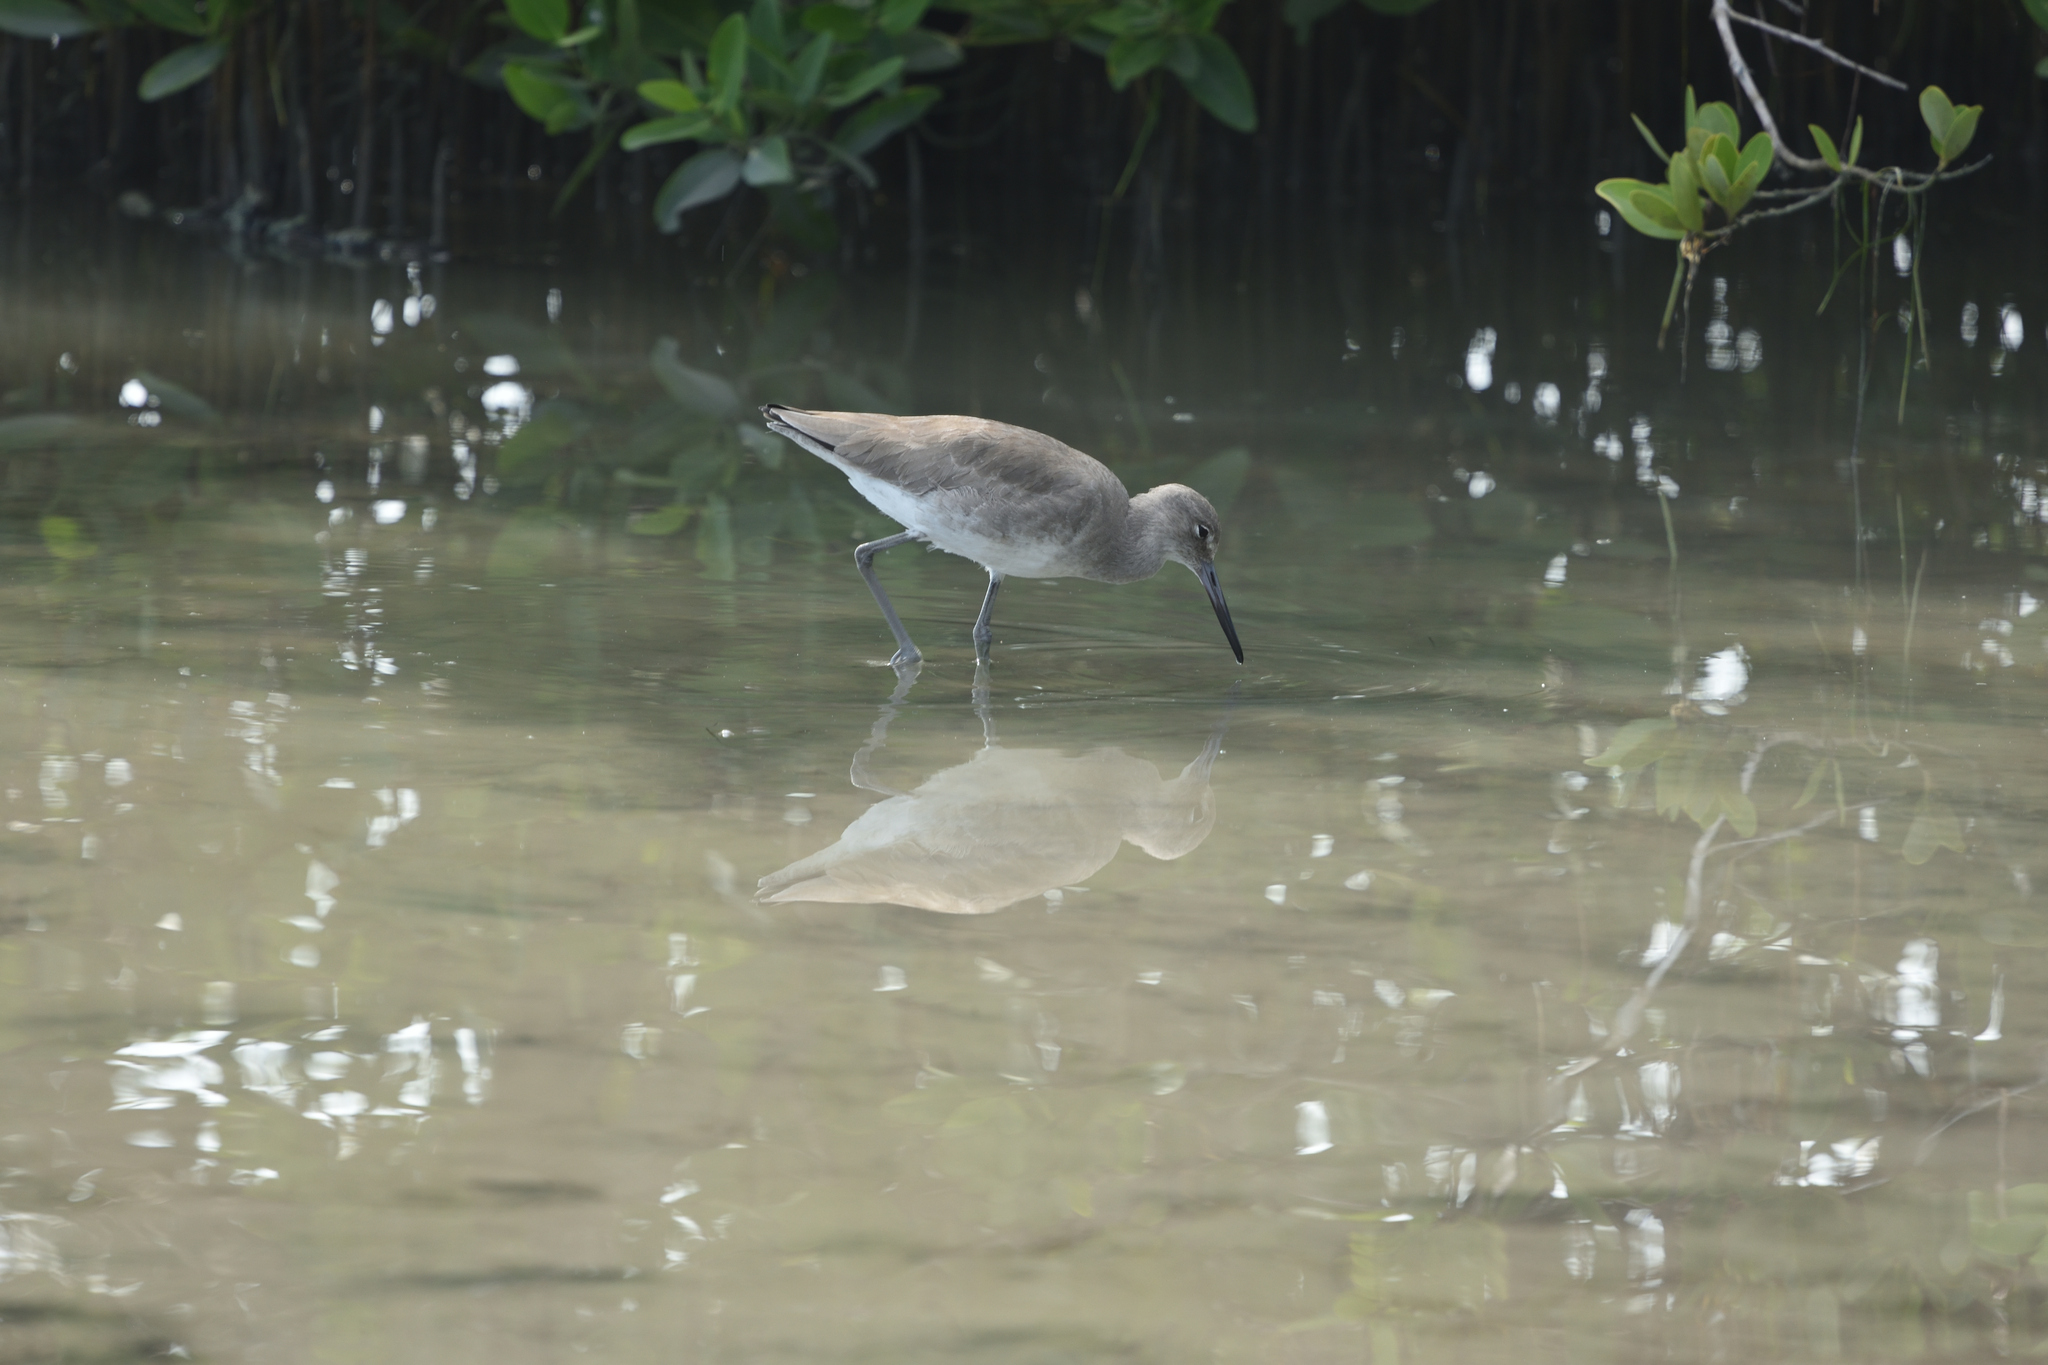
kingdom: Animalia
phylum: Chordata
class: Aves
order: Charadriiformes
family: Scolopacidae
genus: Tringa
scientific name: Tringa semipalmata
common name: Willet
